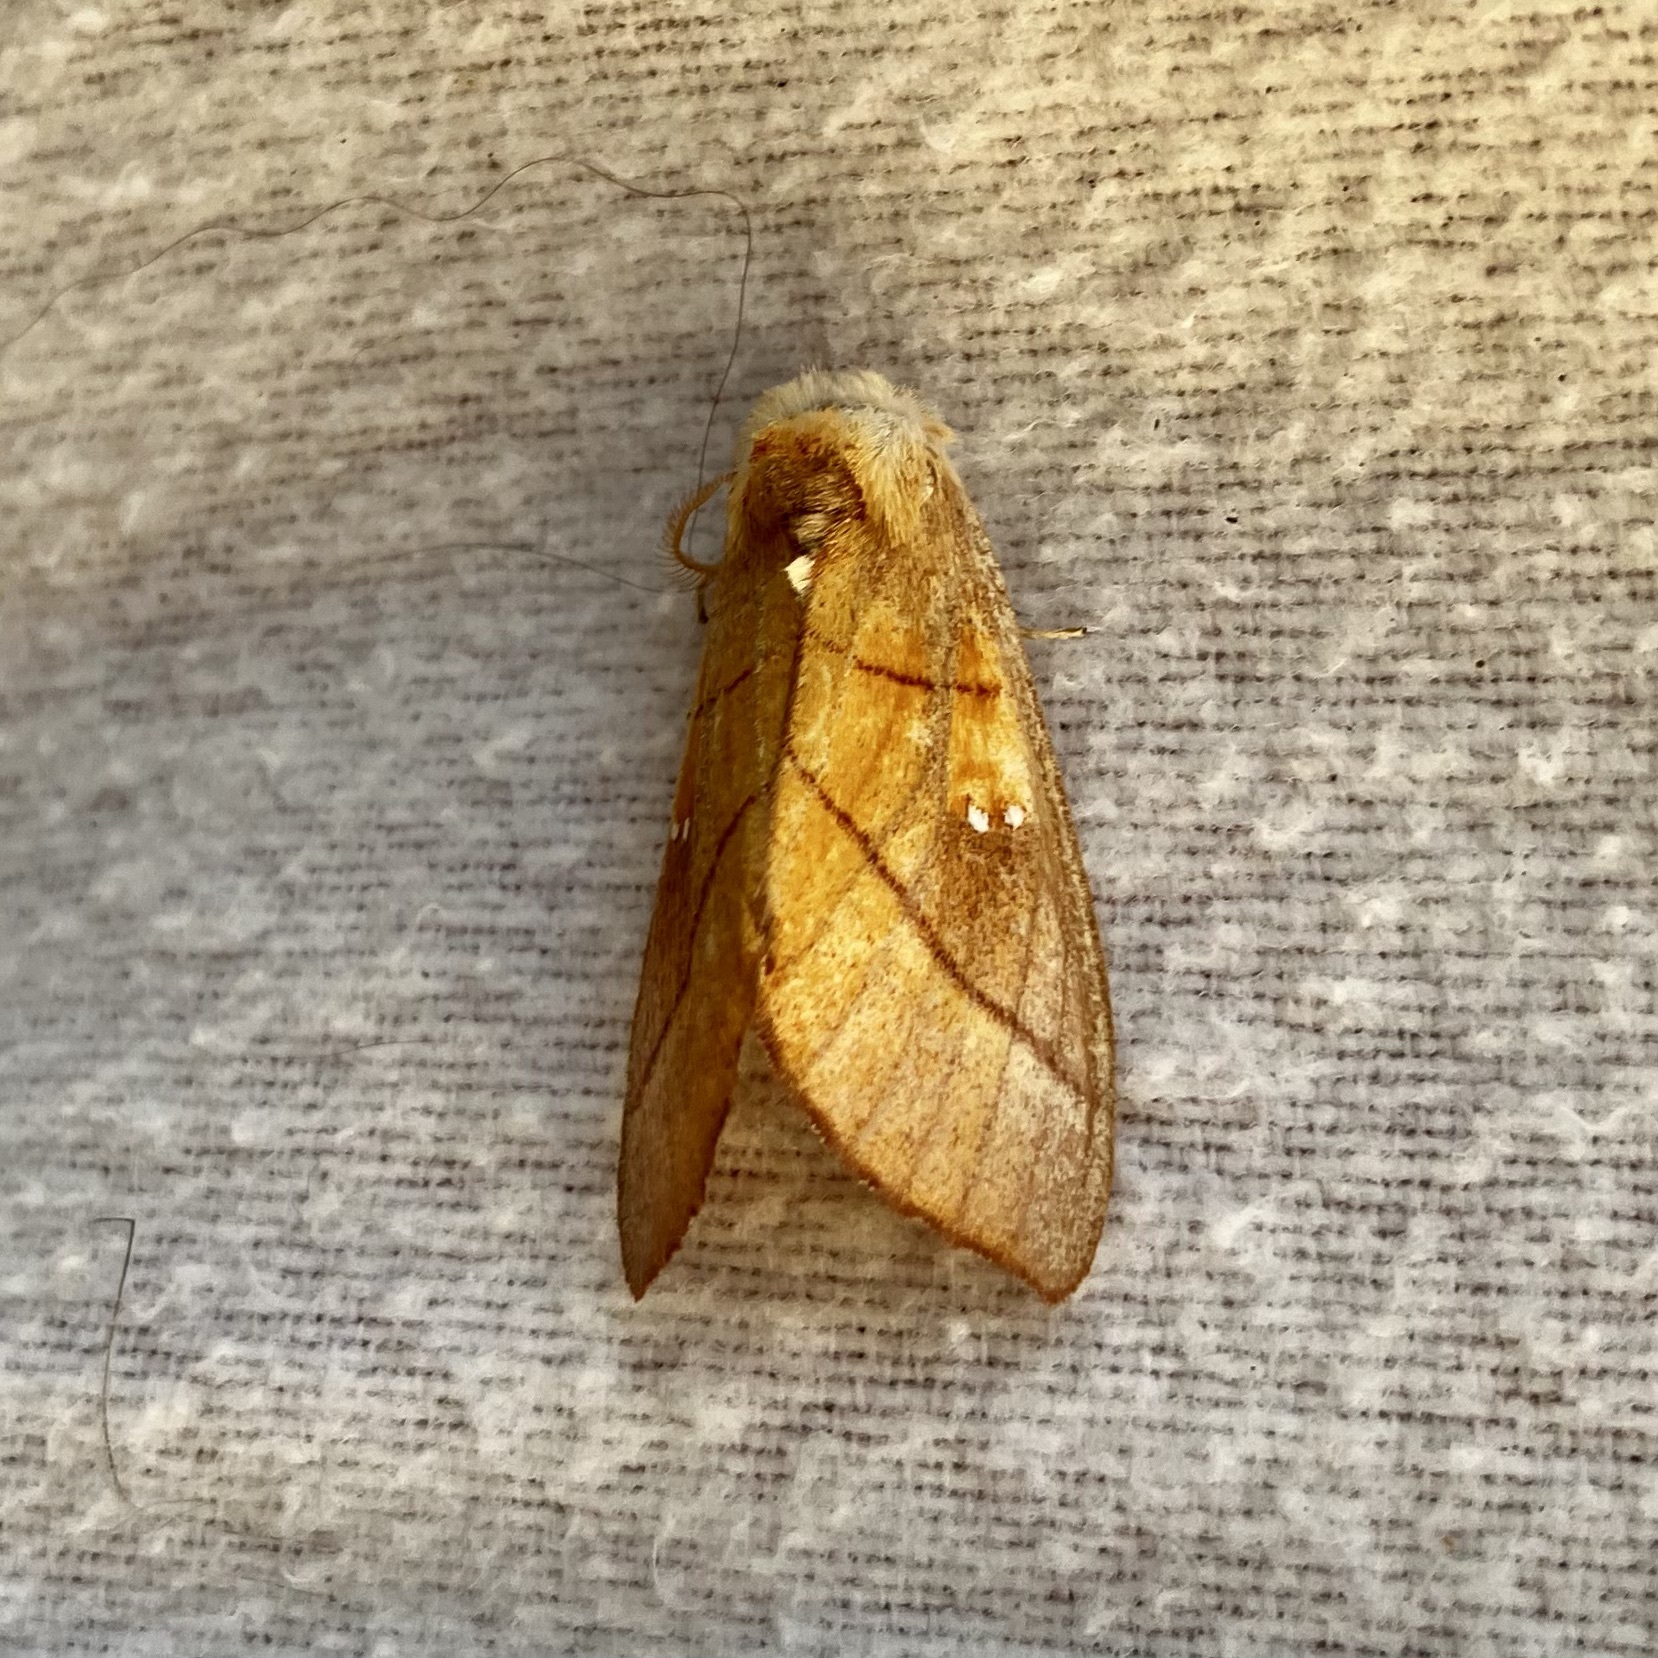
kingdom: Animalia
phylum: Arthropoda
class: Insecta
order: Lepidoptera
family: Notodontidae
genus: Nadata
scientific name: Nadata gibbosa
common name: White-dotted prominent
